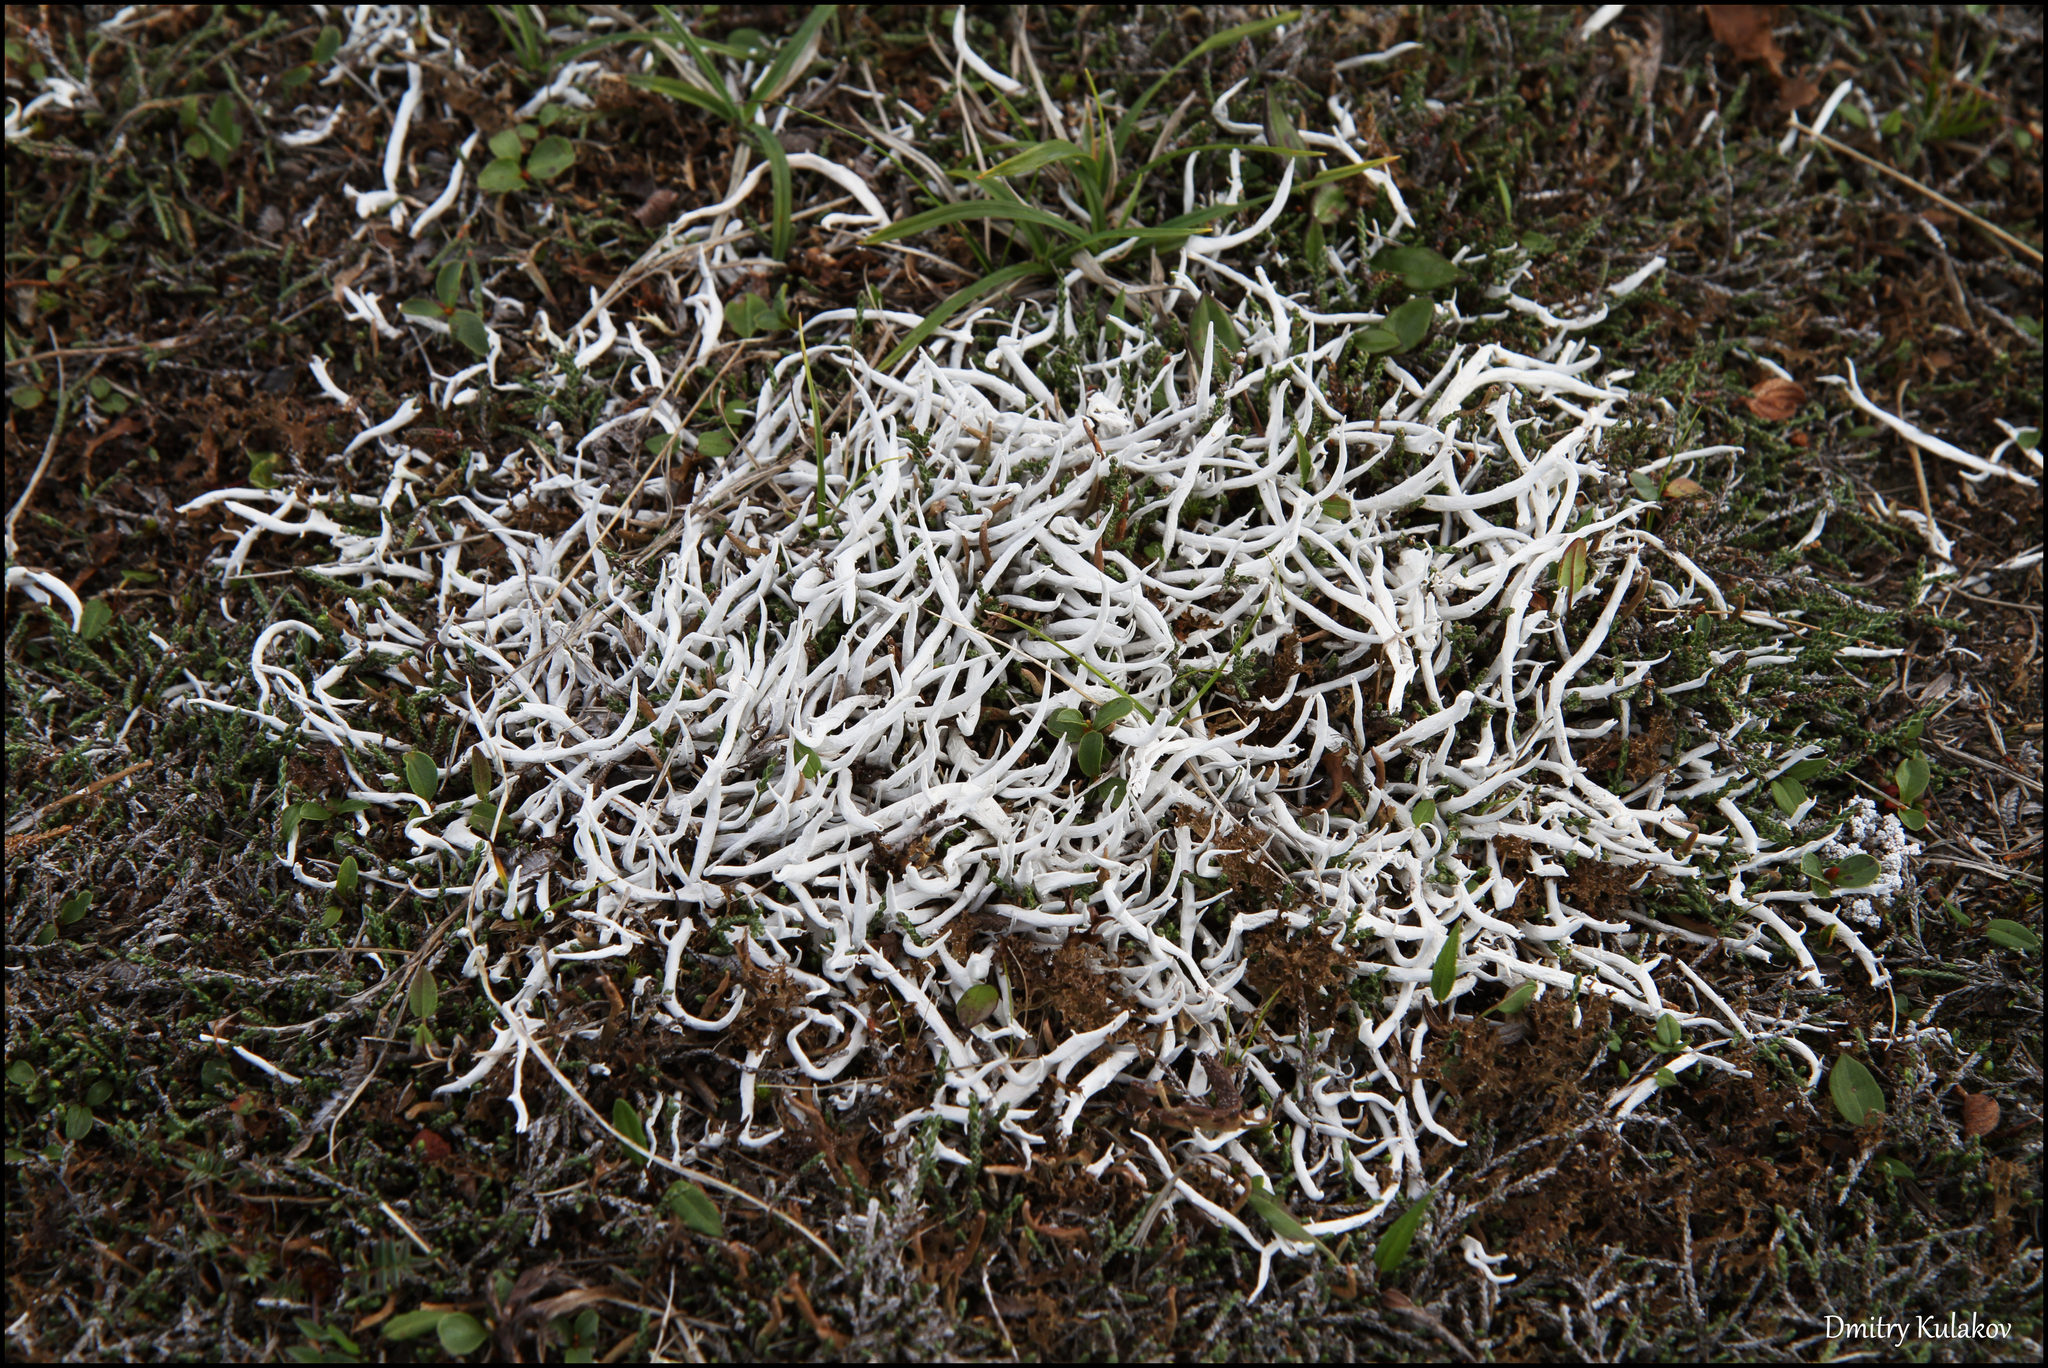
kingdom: Fungi
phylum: Ascomycota
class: Lecanoromycetes
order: Pertusariales
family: Icmadophilaceae
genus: Thamnolia
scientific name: Thamnolia vermicularis
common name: Whiteworm lichen
